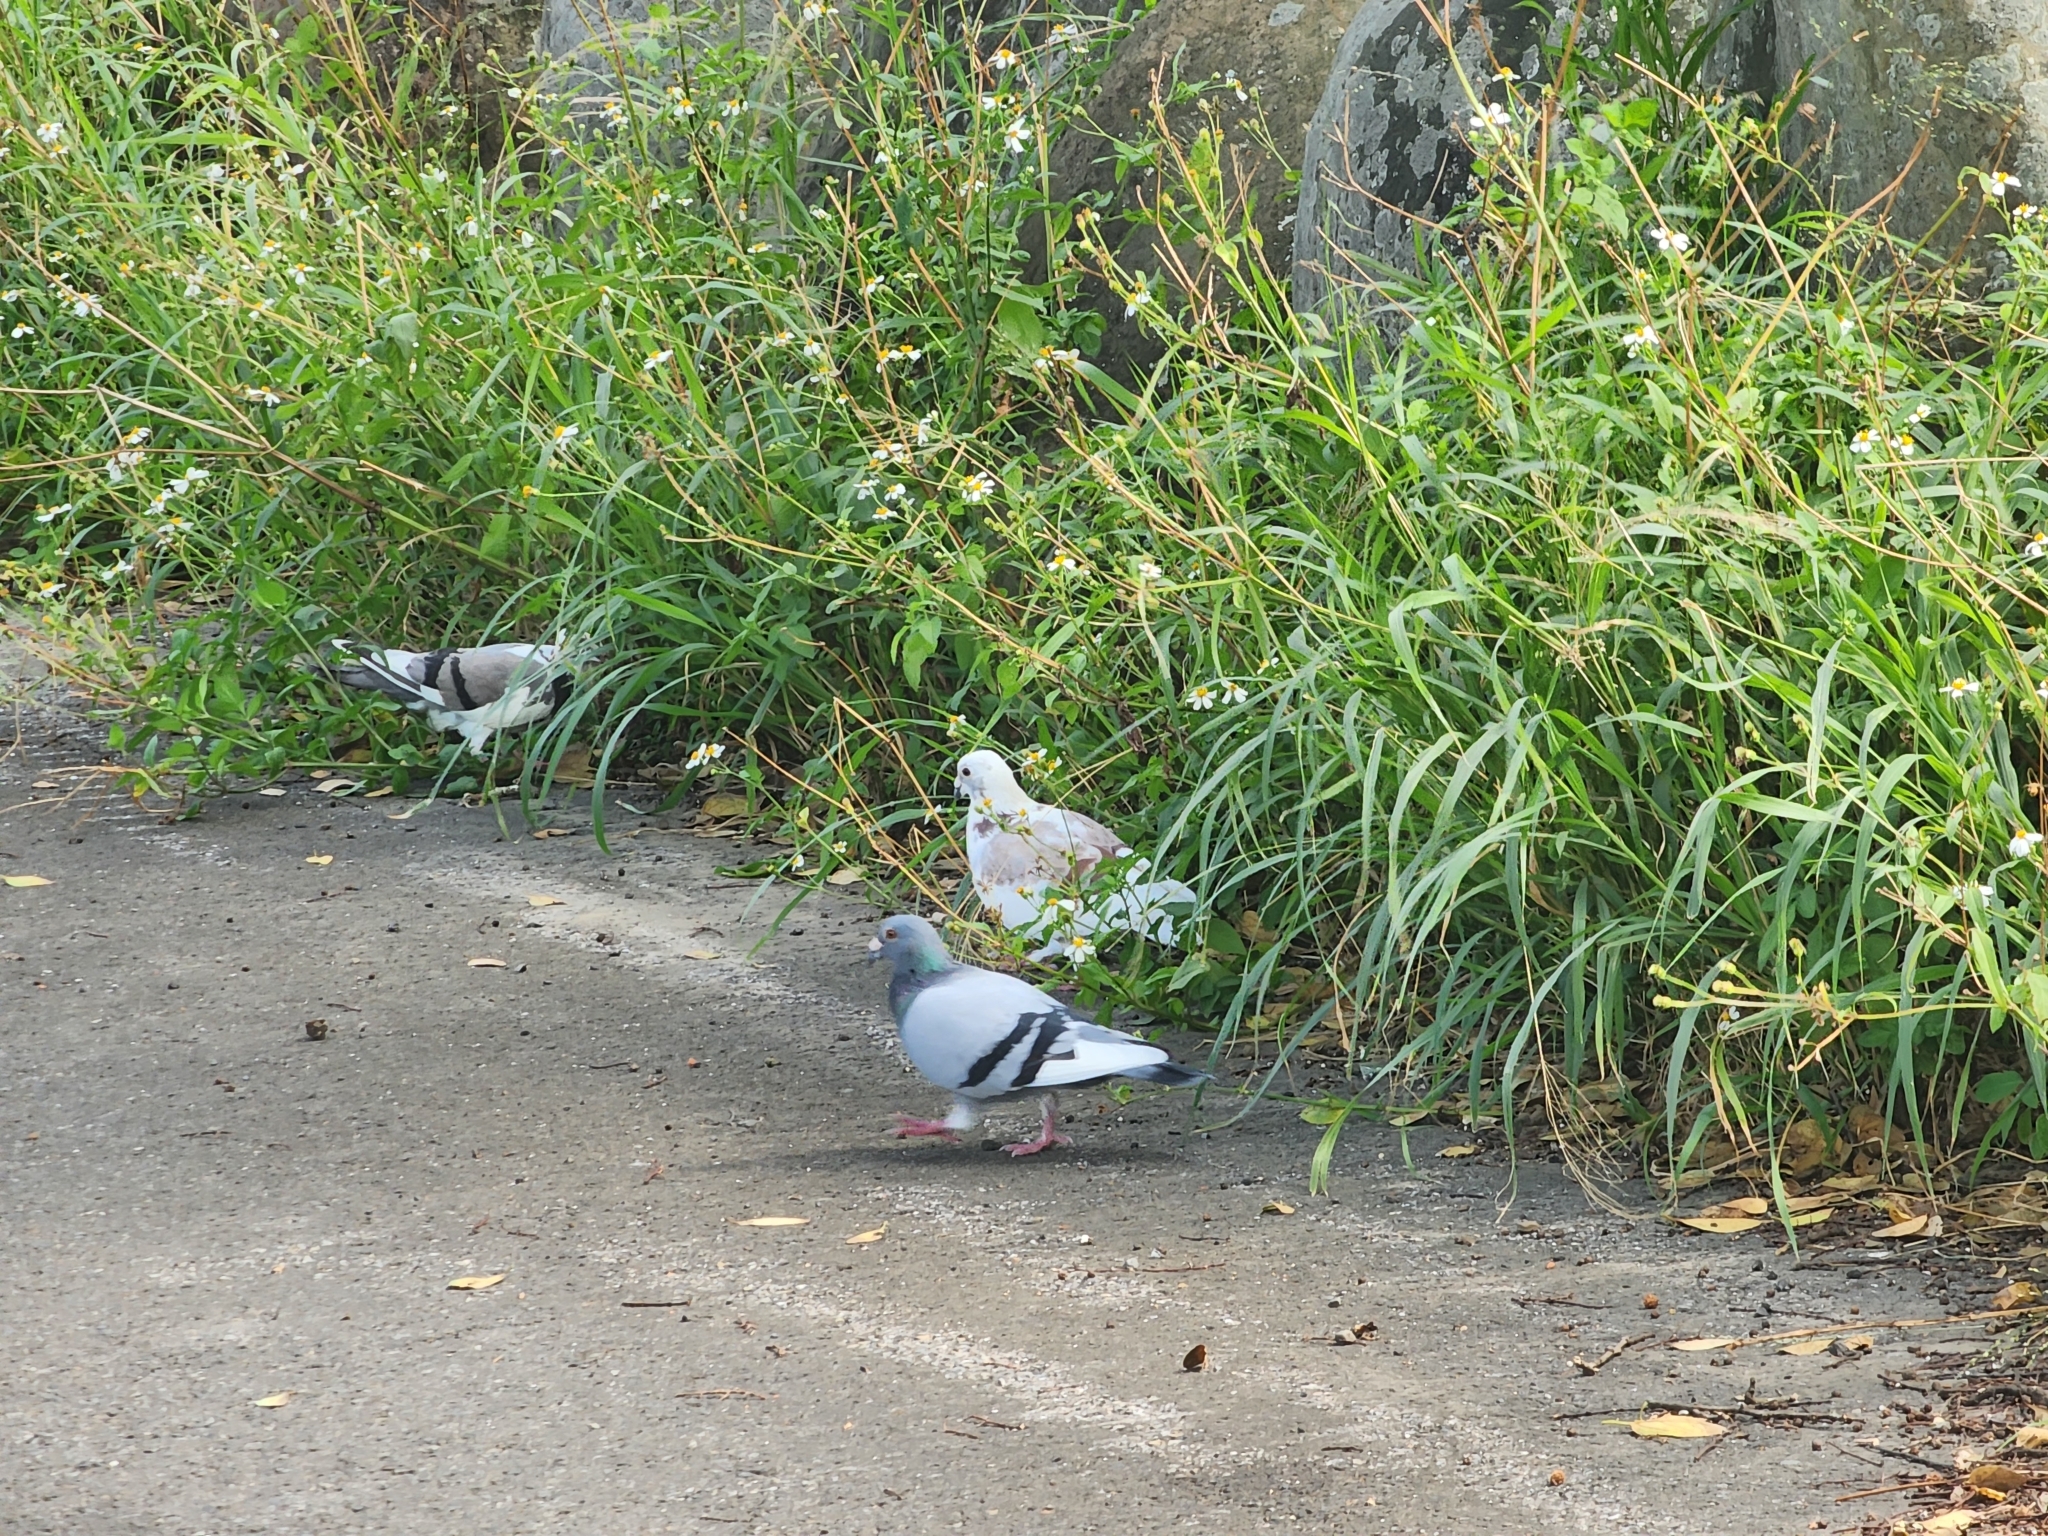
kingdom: Animalia
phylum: Chordata
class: Aves
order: Columbiformes
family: Columbidae
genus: Columba
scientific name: Columba livia
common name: Rock pigeon
